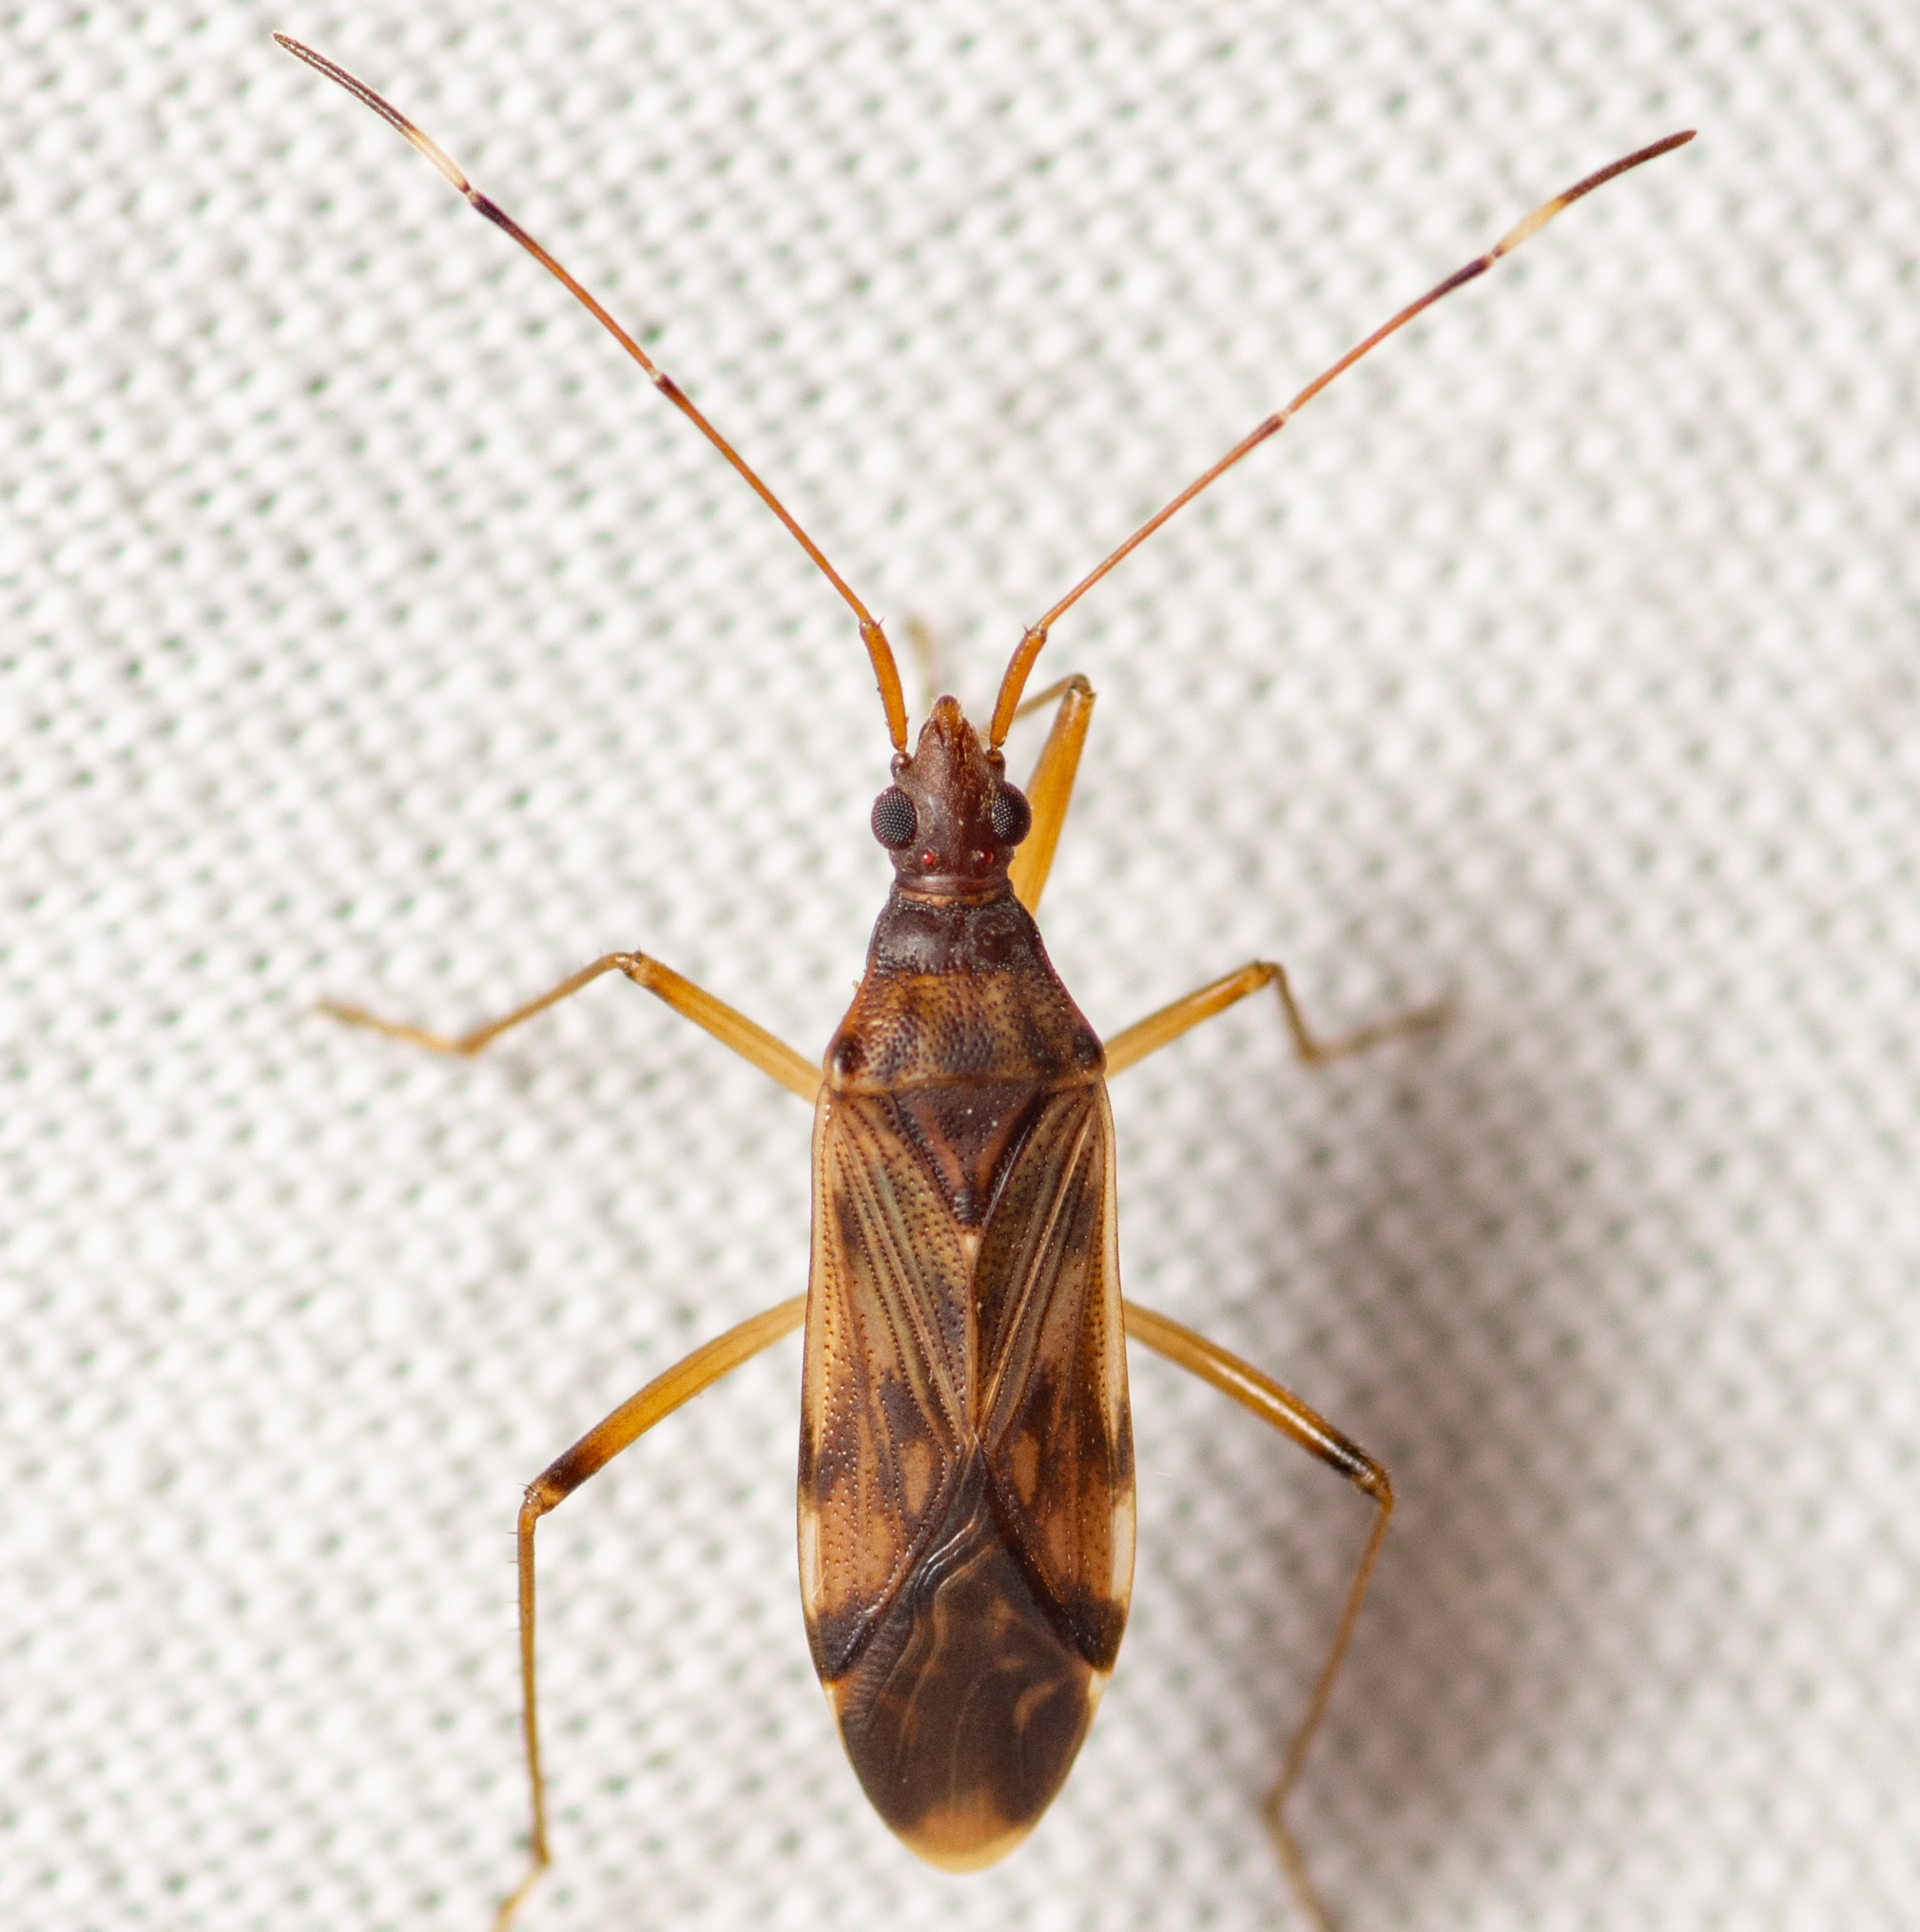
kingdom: Animalia
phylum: Arthropoda
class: Insecta
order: Hemiptera
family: Rhyparochromidae
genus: Ozophora
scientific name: Ozophora depicturata
